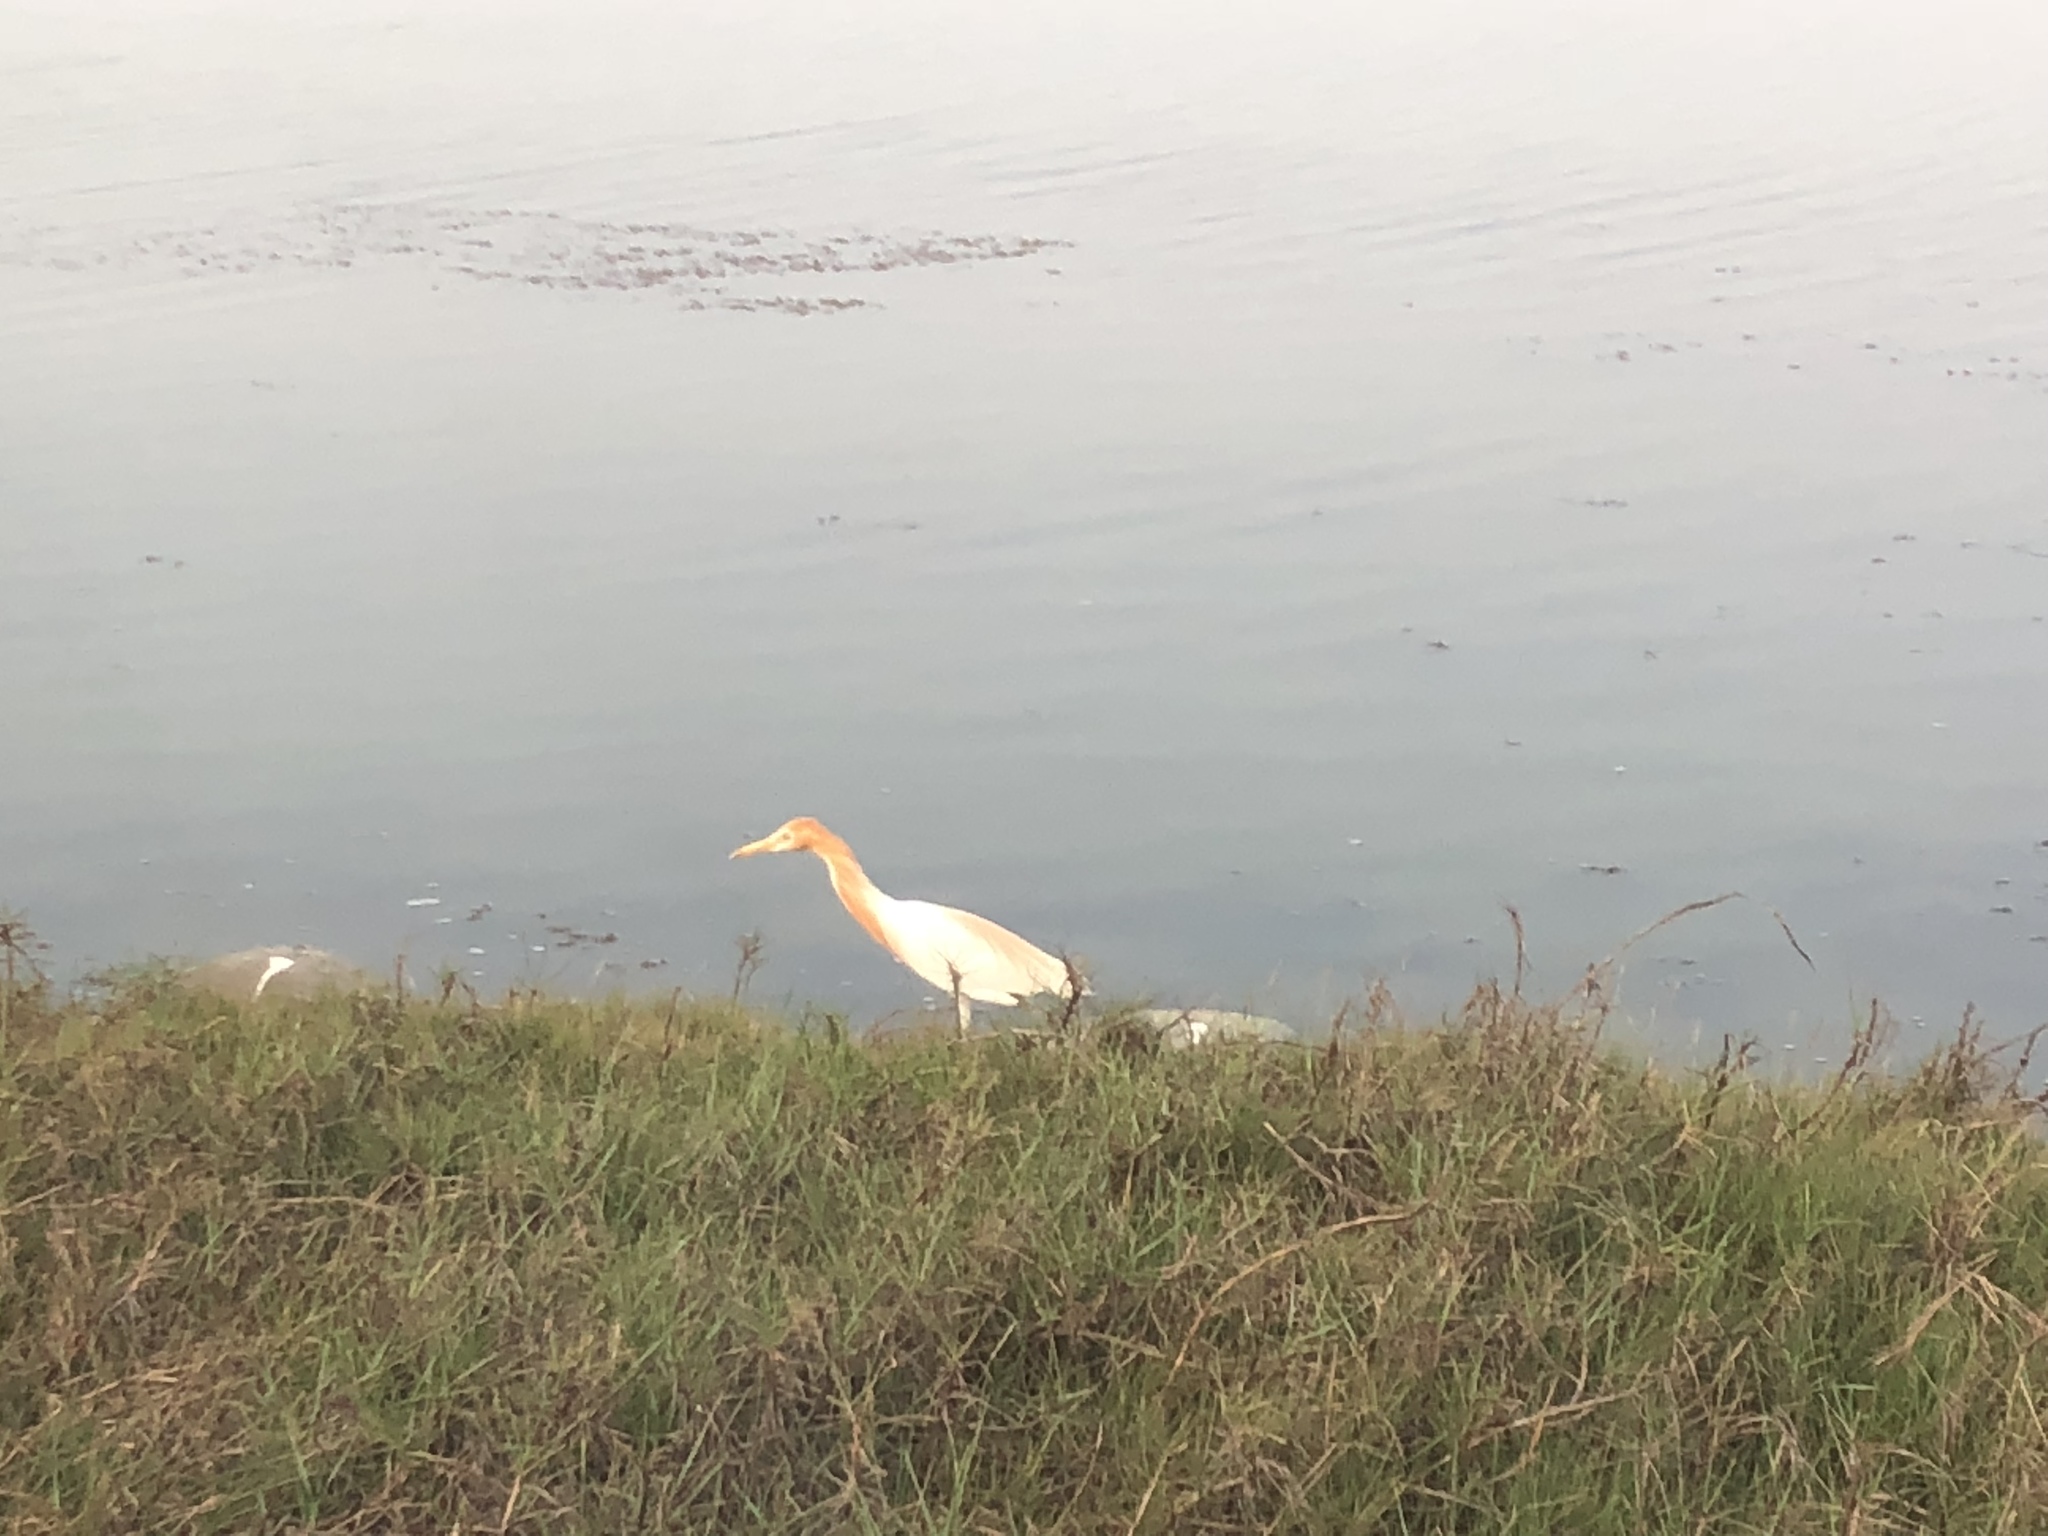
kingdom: Animalia
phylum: Chordata
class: Aves
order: Pelecaniformes
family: Ardeidae
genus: Bubulcus
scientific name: Bubulcus coromandus
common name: Eastern cattle egret
